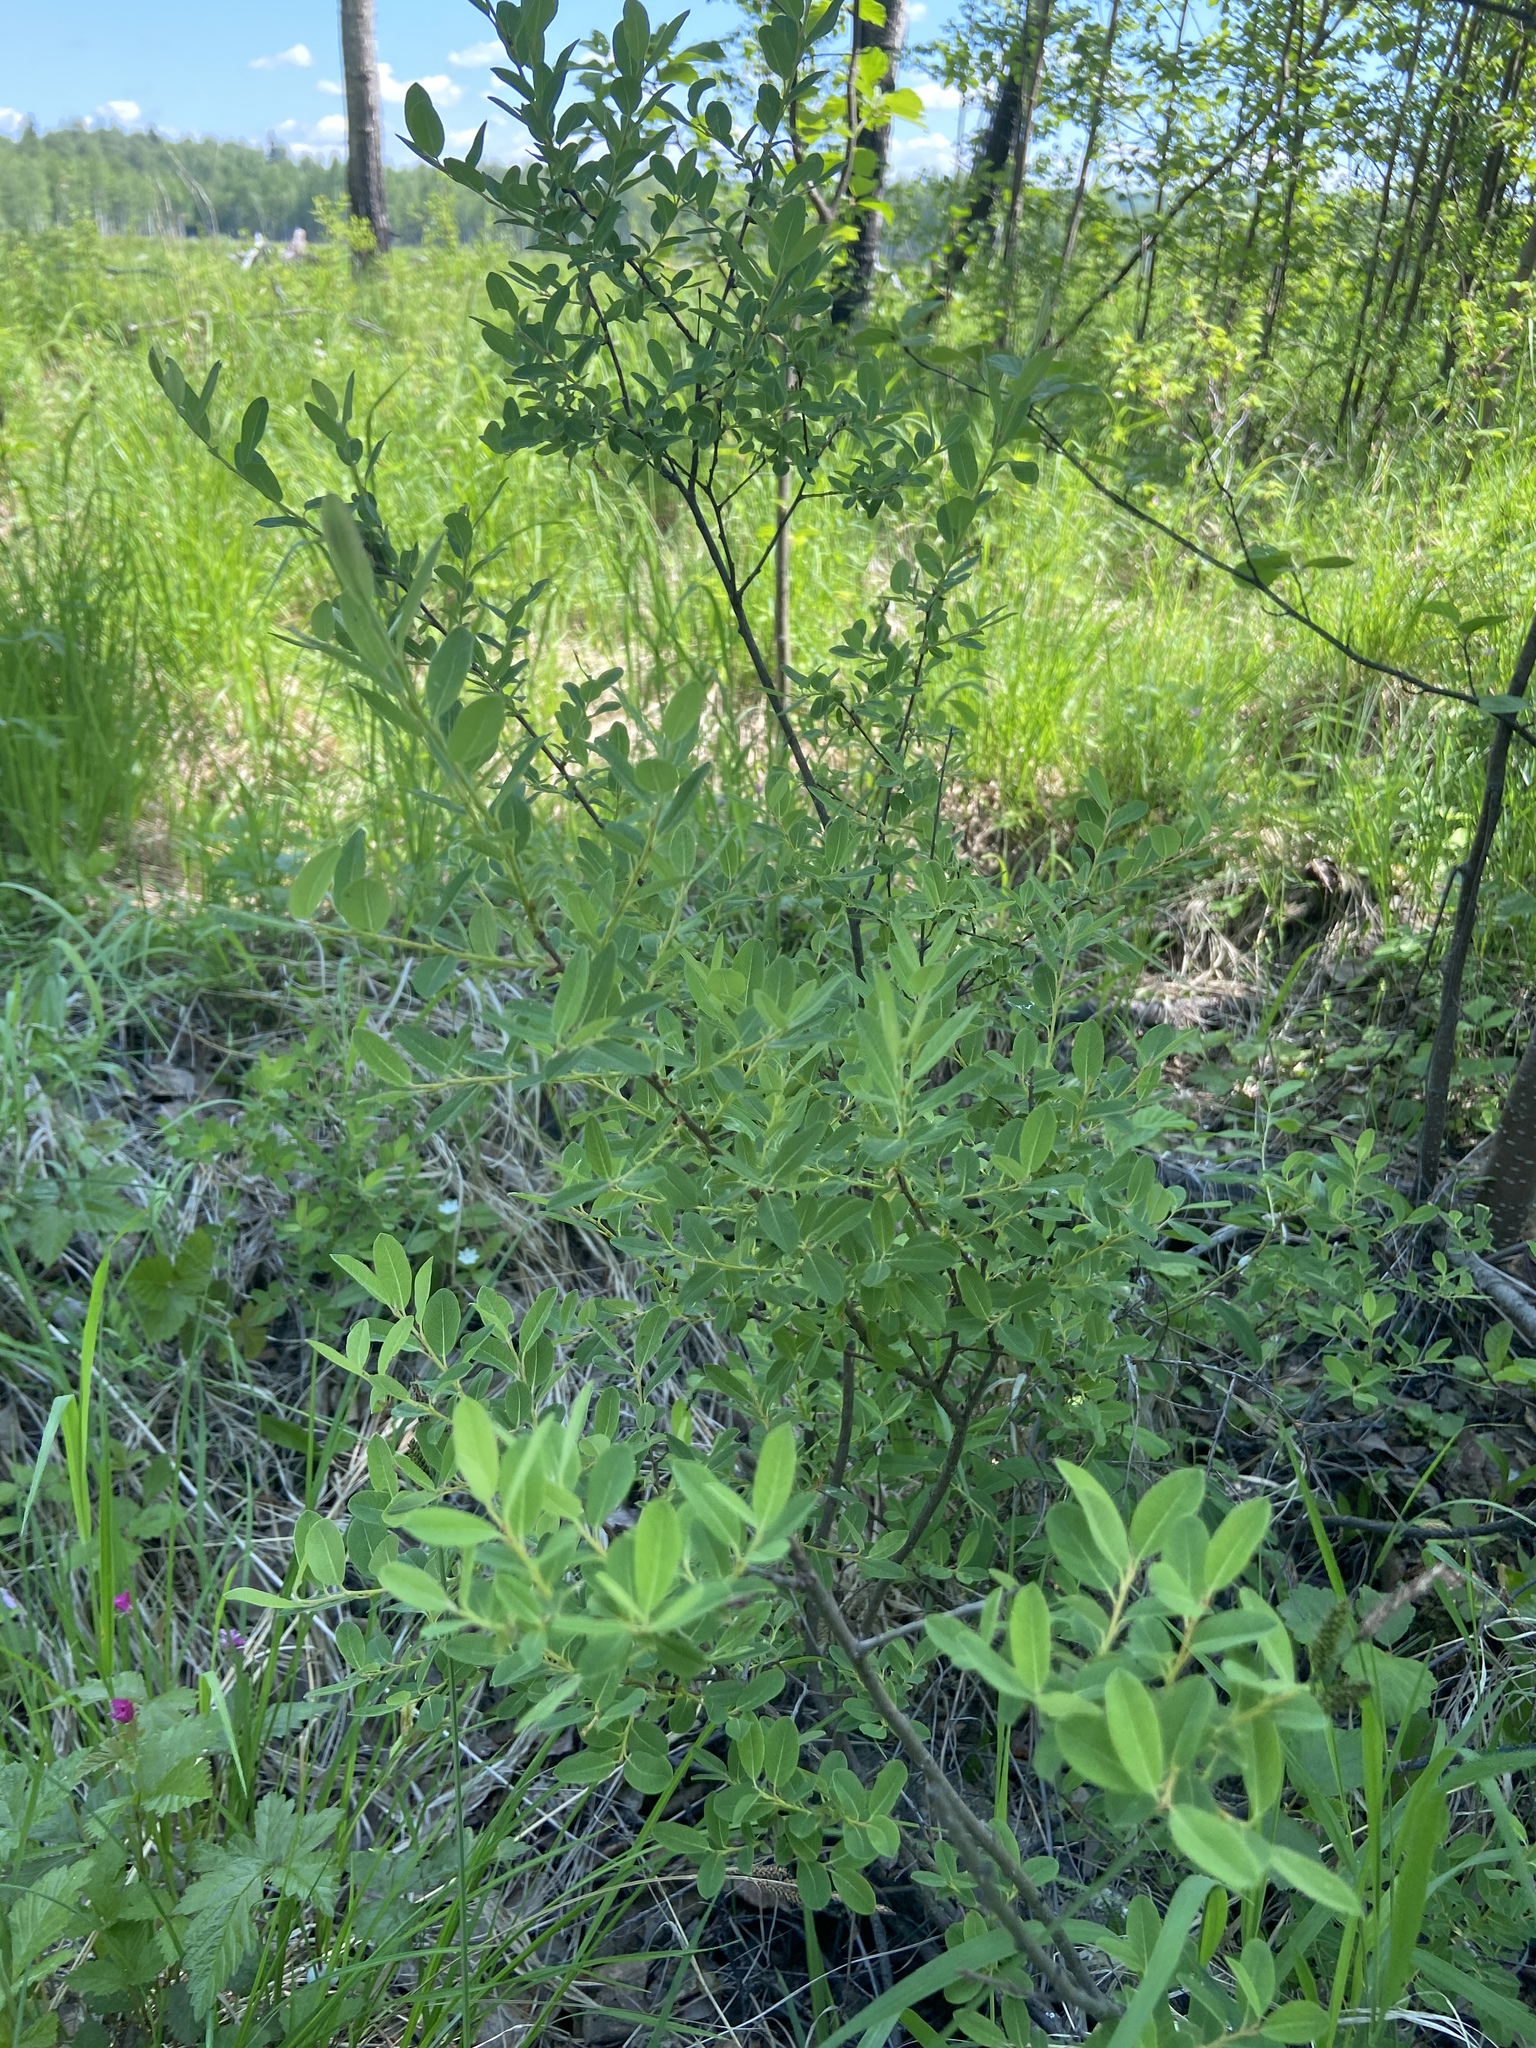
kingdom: Plantae
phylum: Tracheophyta
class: Magnoliopsida
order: Malpighiales
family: Salicaceae
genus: Salix
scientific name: Salix kochiana
